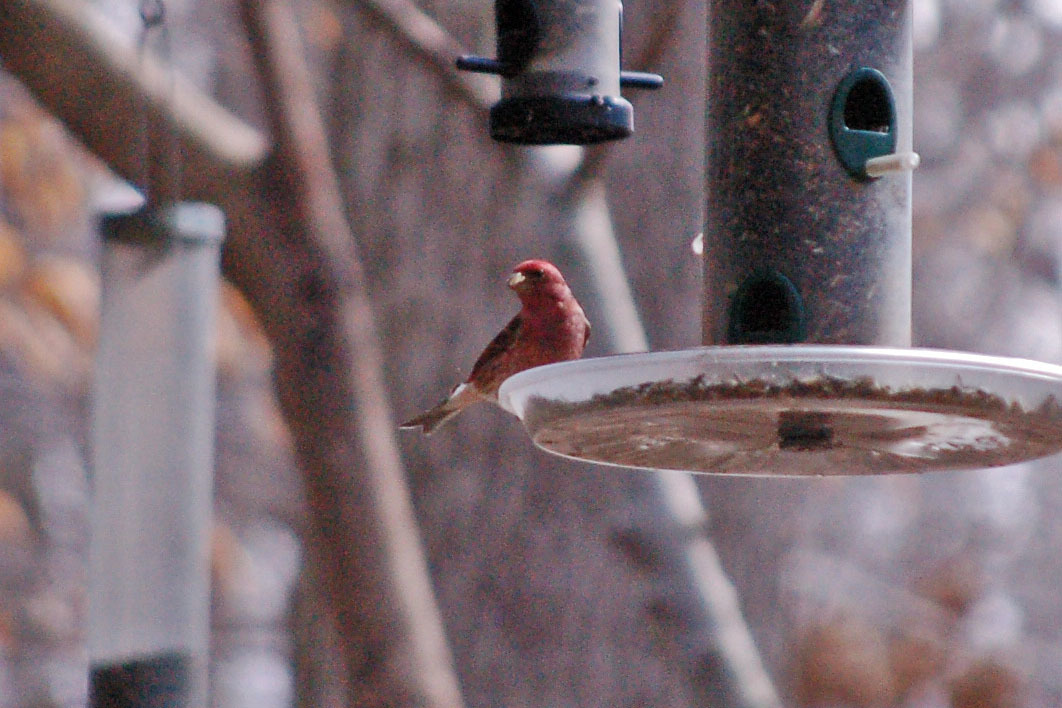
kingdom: Animalia
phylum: Chordata
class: Aves
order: Passeriformes
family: Fringillidae
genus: Haemorhous
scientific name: Haemorhous purpureus
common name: Purple finch
